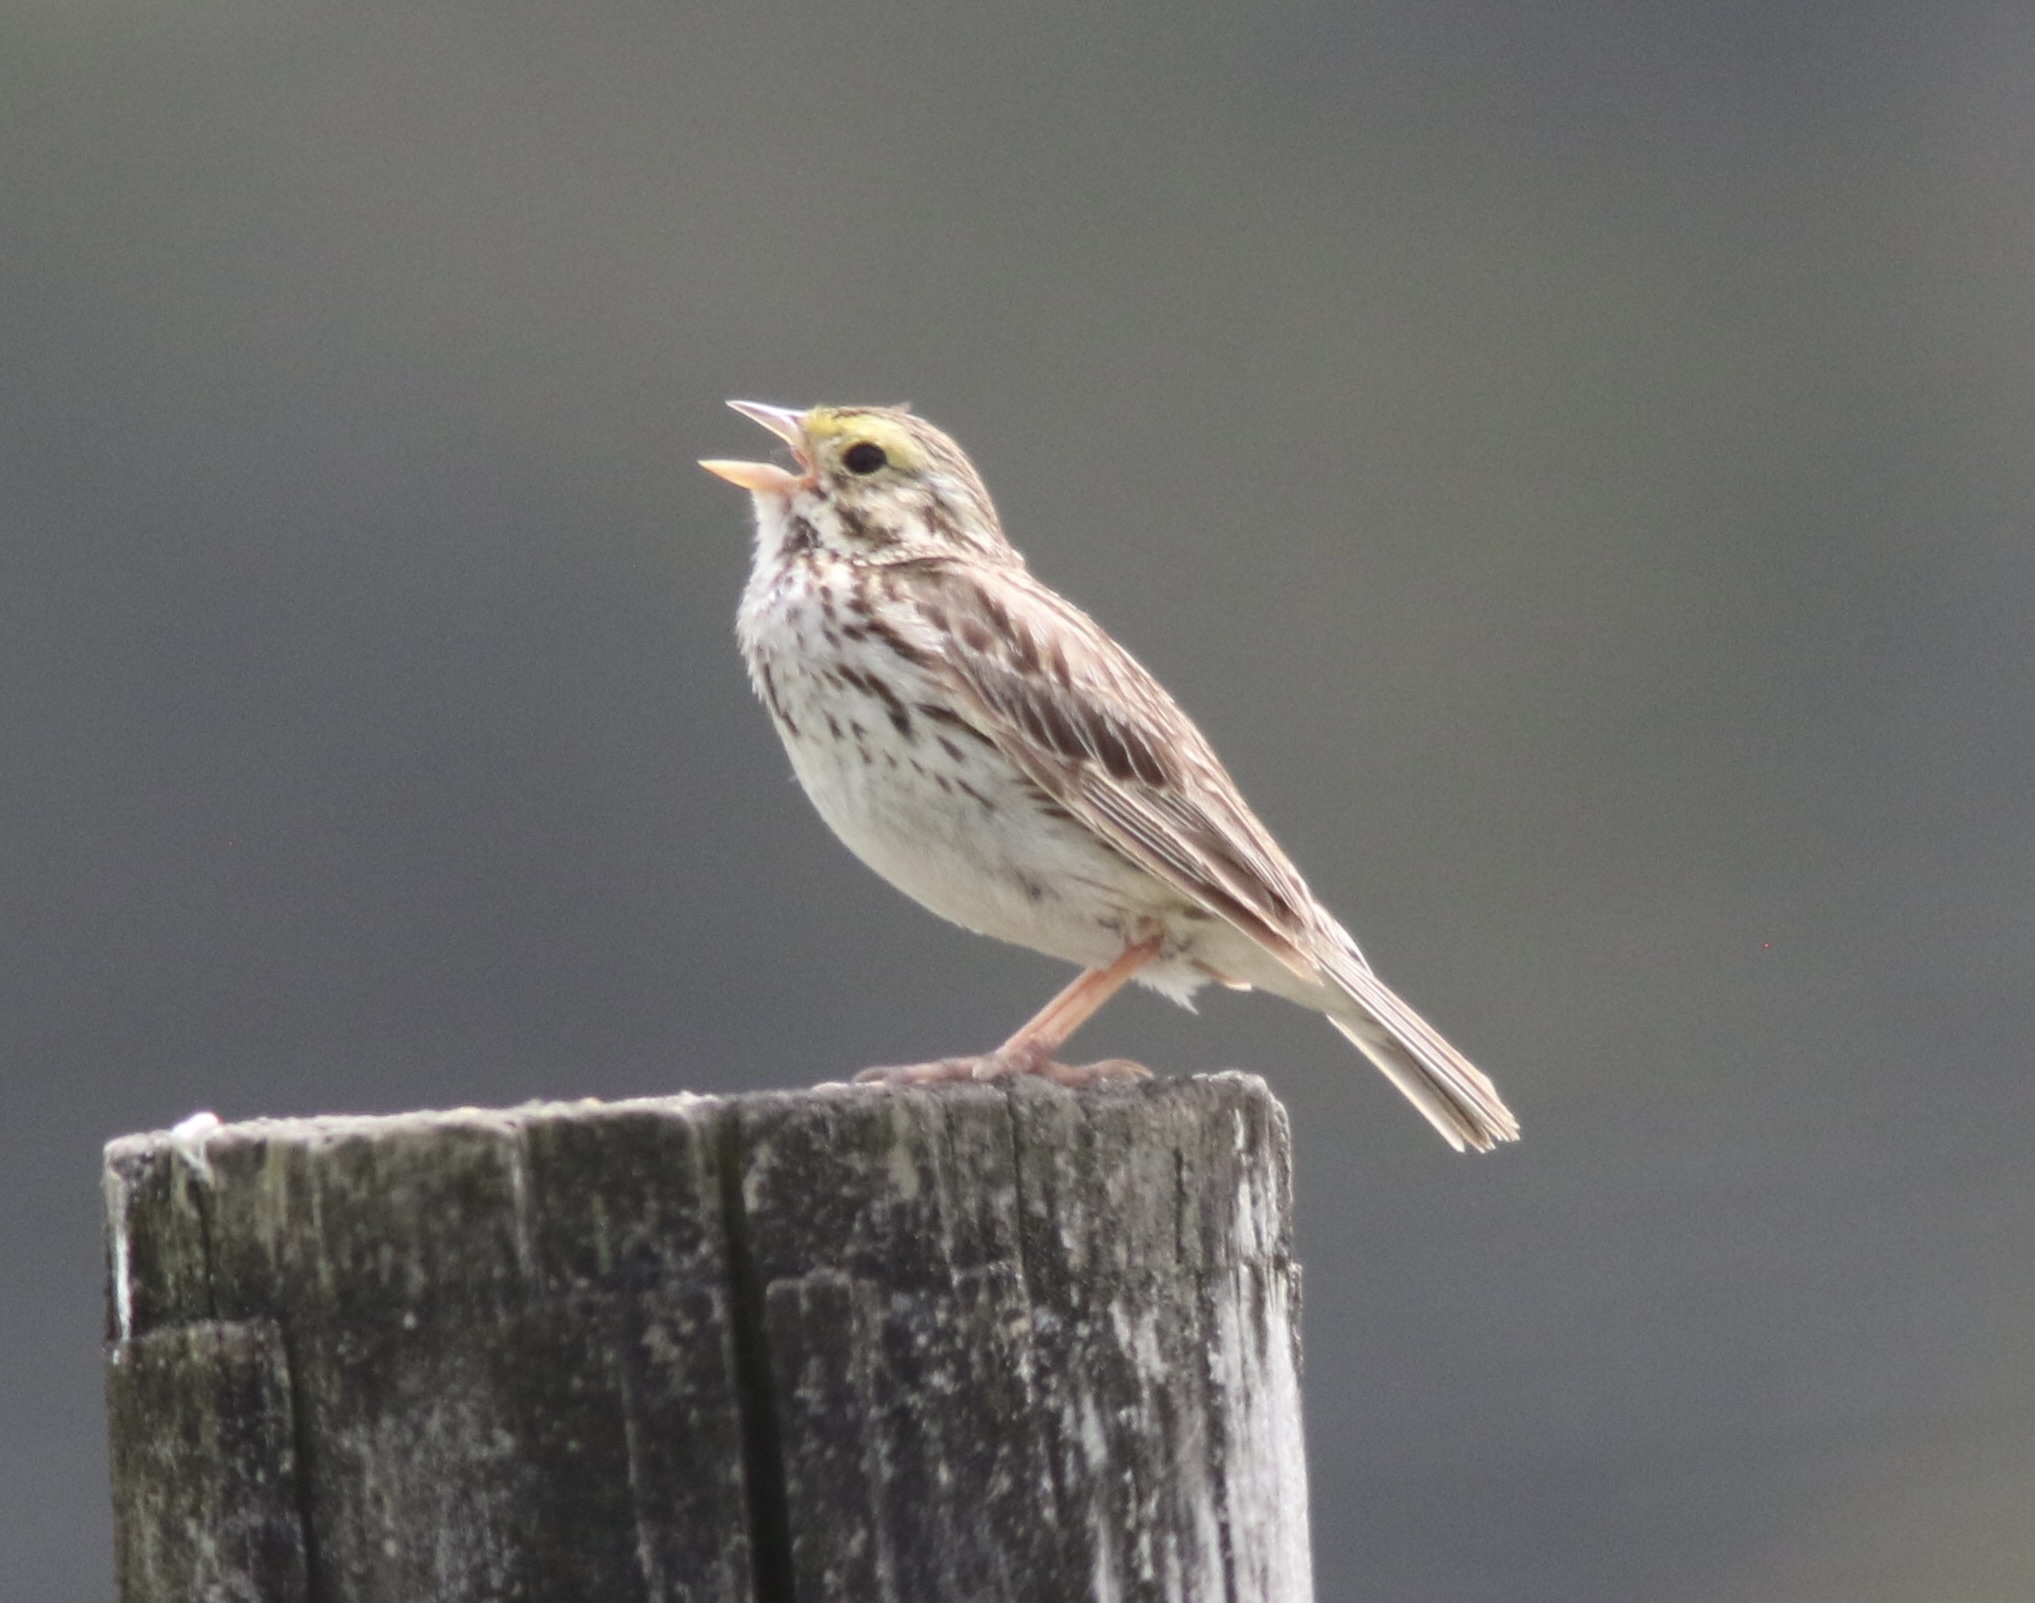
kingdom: Animalia
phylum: Chordata
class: Aves
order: Passeriformes
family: Passerellidae
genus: Passerculus
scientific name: Passerculus sandwichensis
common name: Savannah sparrow
